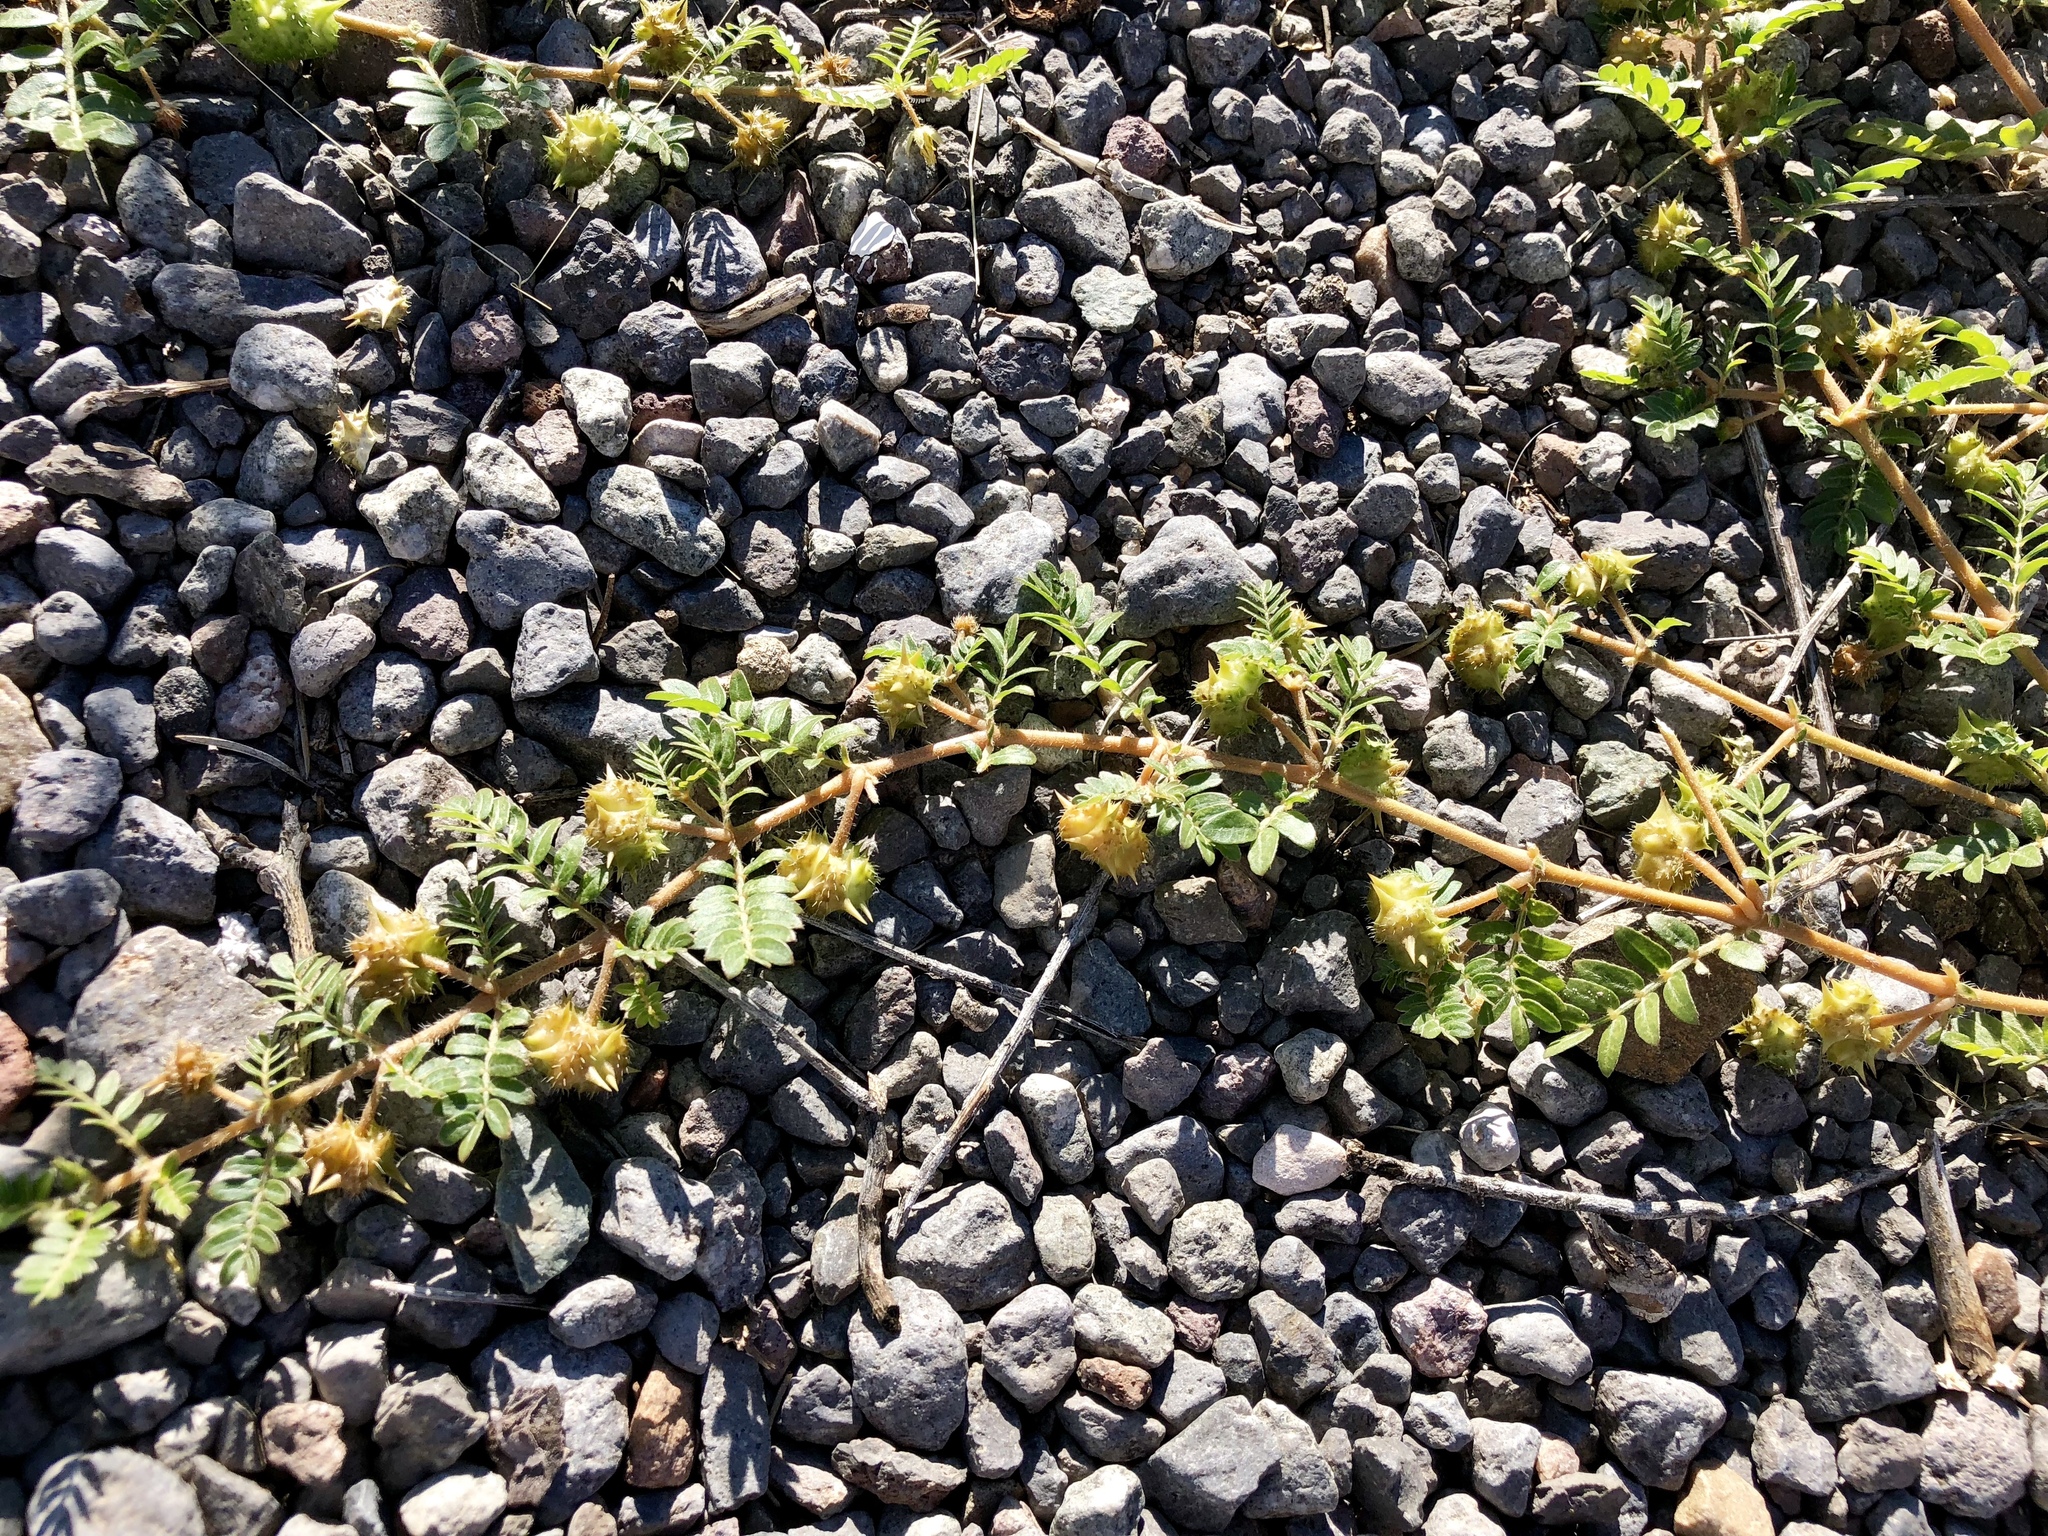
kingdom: Plantae
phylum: Tracheophyta
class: Magnoliopsida
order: Zygophyllales
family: Zygophyllaceae
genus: Tribulus
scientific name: Tribulus terrestris
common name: Puncturevine
